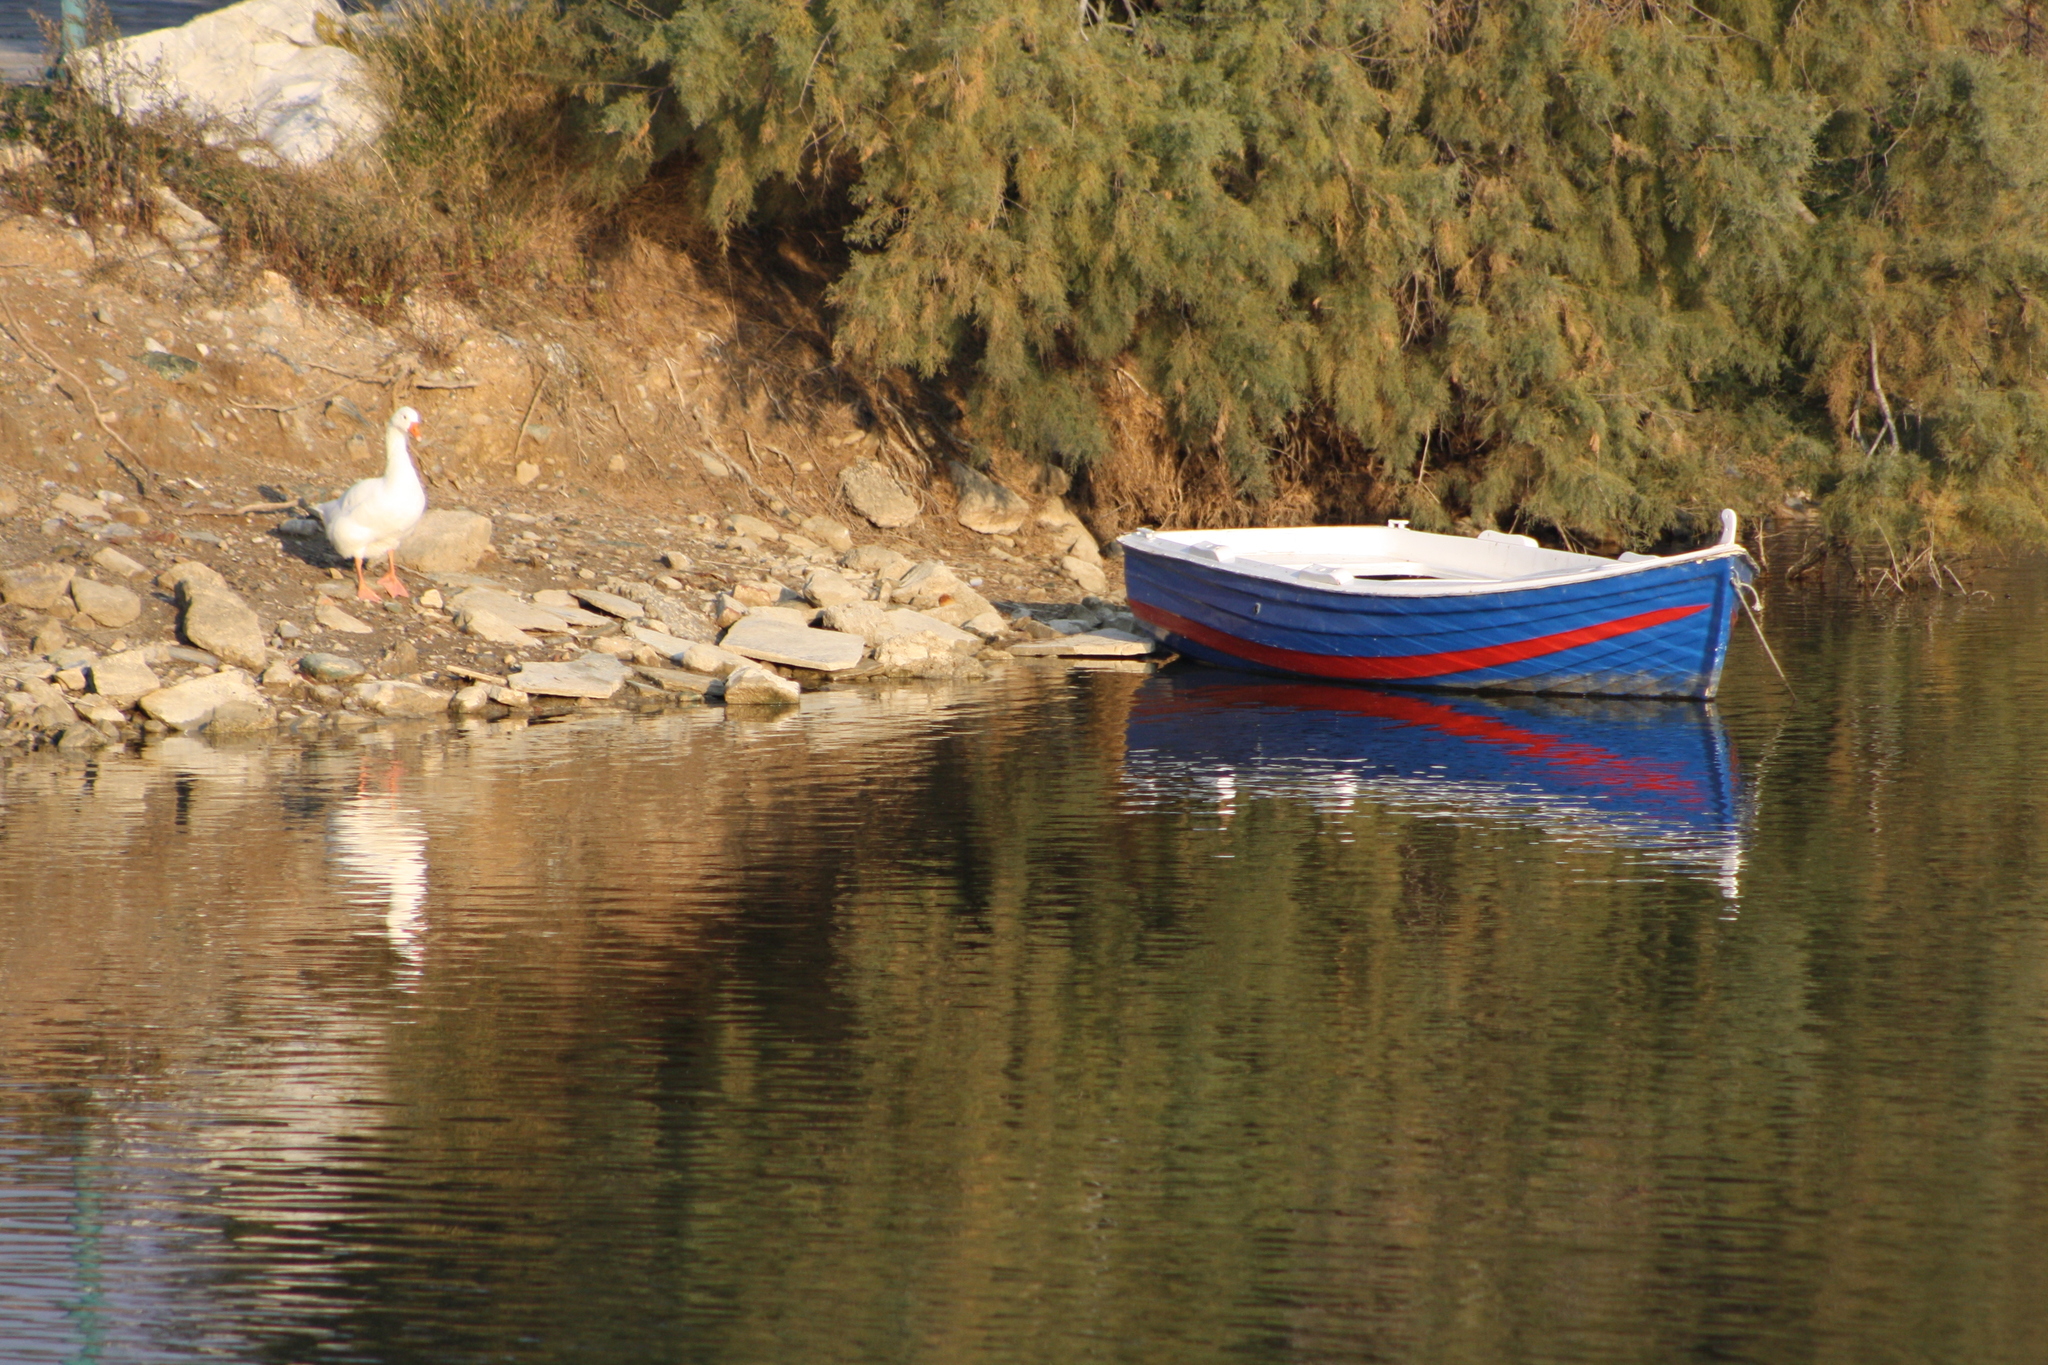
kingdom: Animalia
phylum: Chordata
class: Aves
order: Anseriformes
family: Anatidae
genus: Anser
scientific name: Anser anser
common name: Greylag goose
